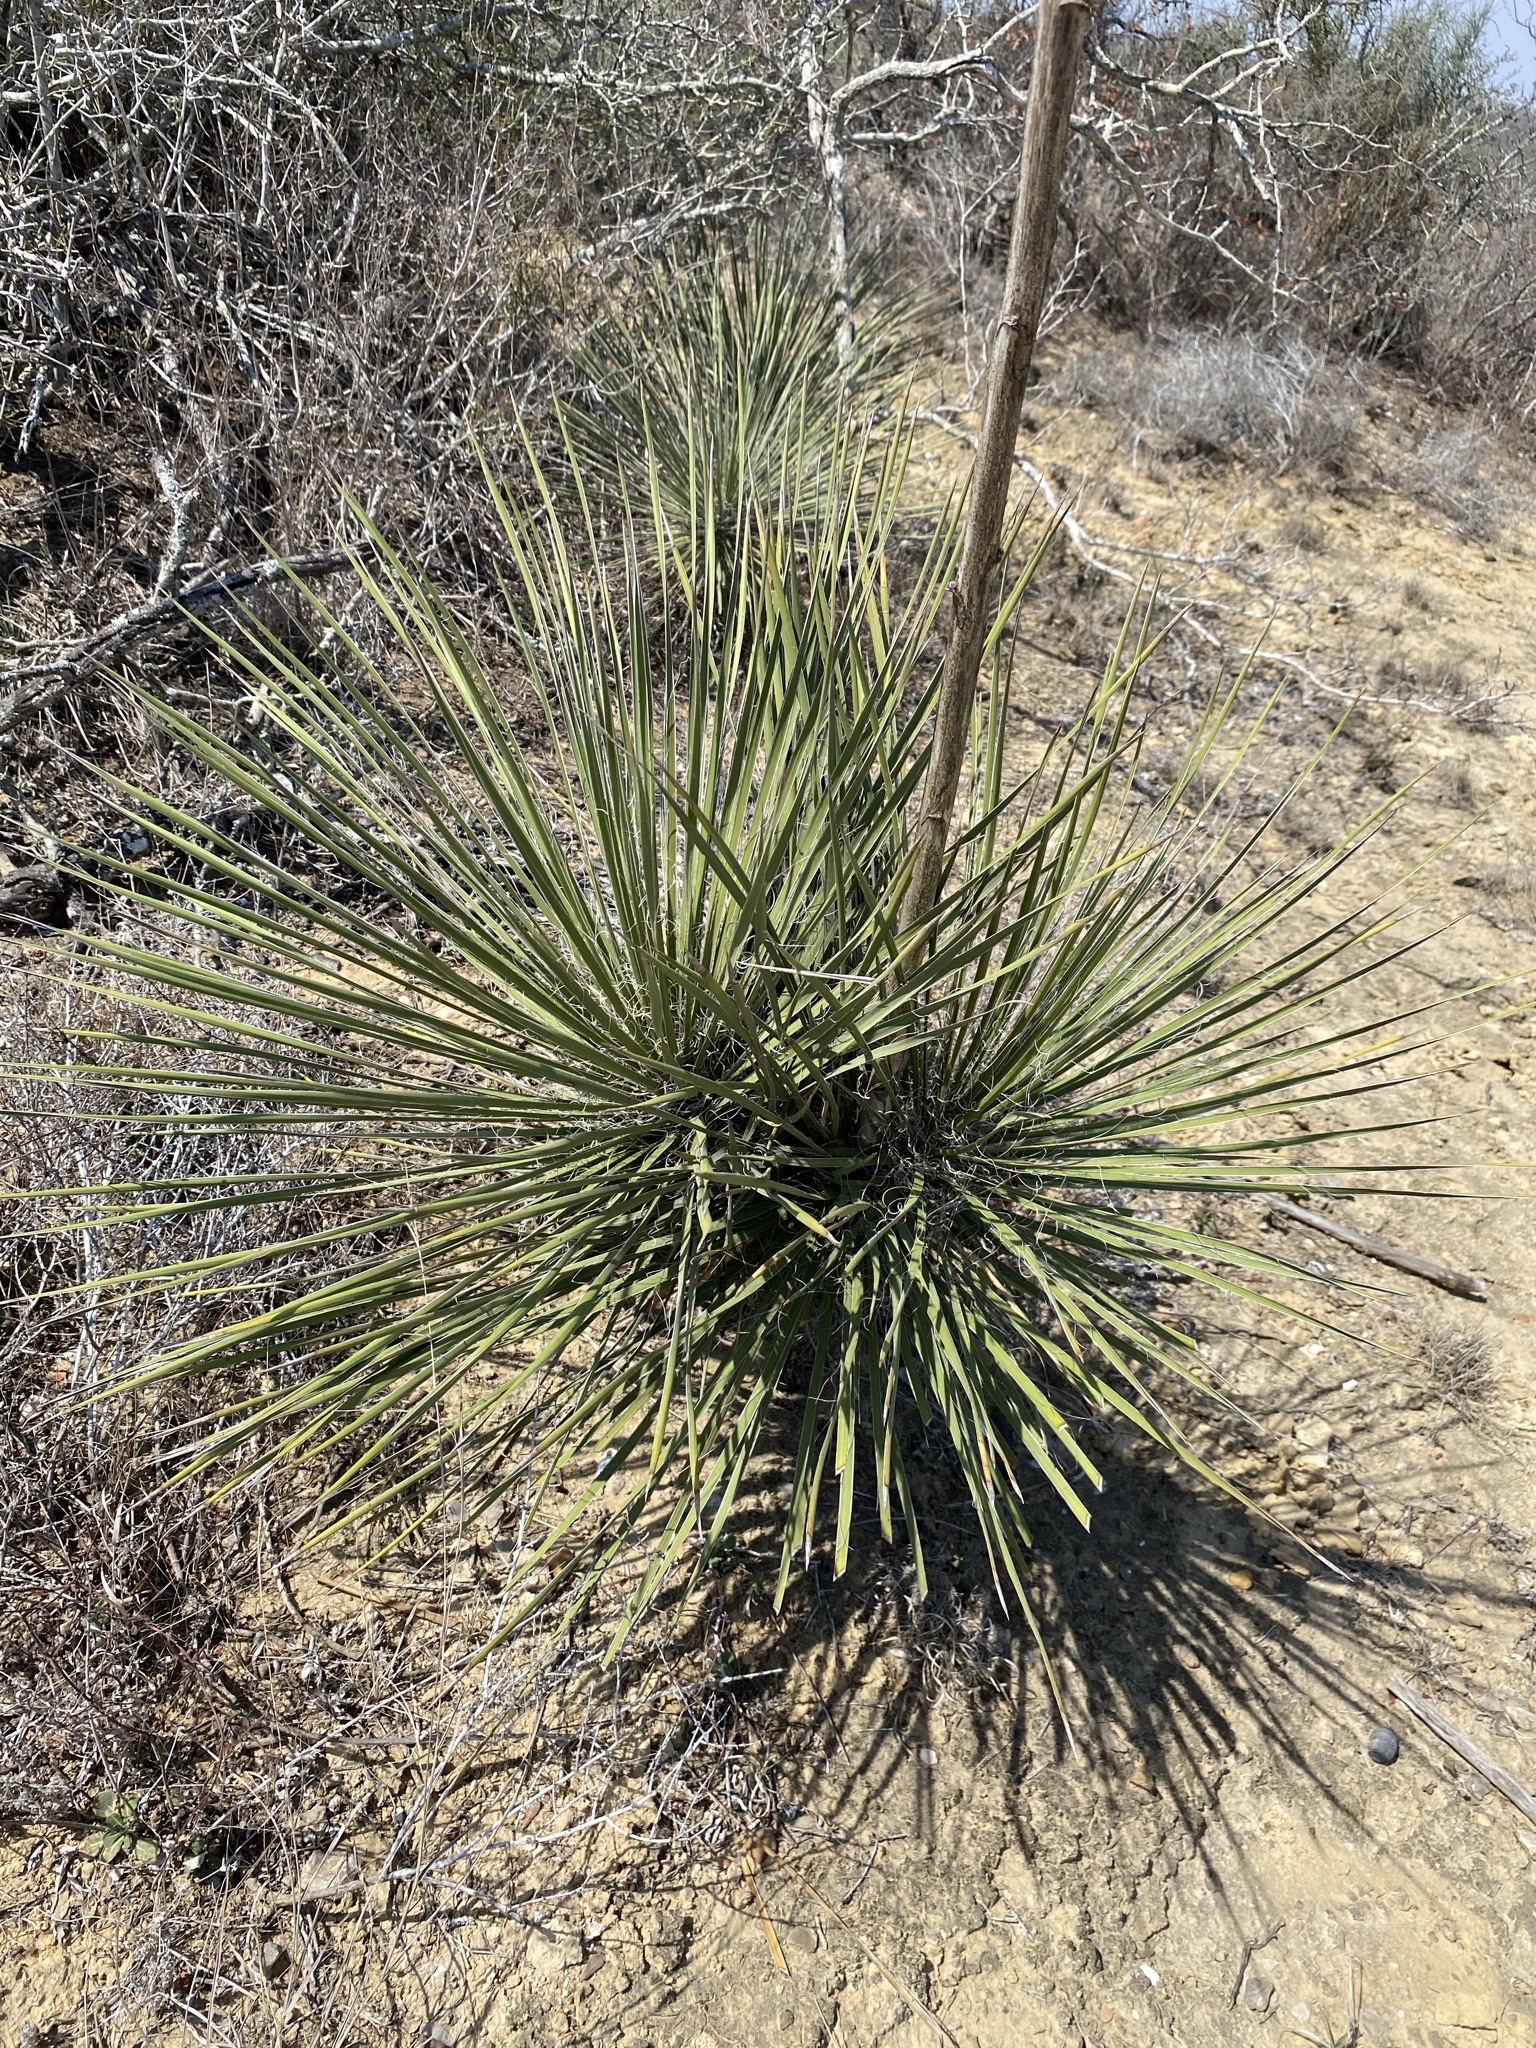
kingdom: Plantae
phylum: Tracheophyta
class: Liliopsida
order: Asparagales
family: Asparagaceae
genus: Yucca
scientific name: Yucca constricta
